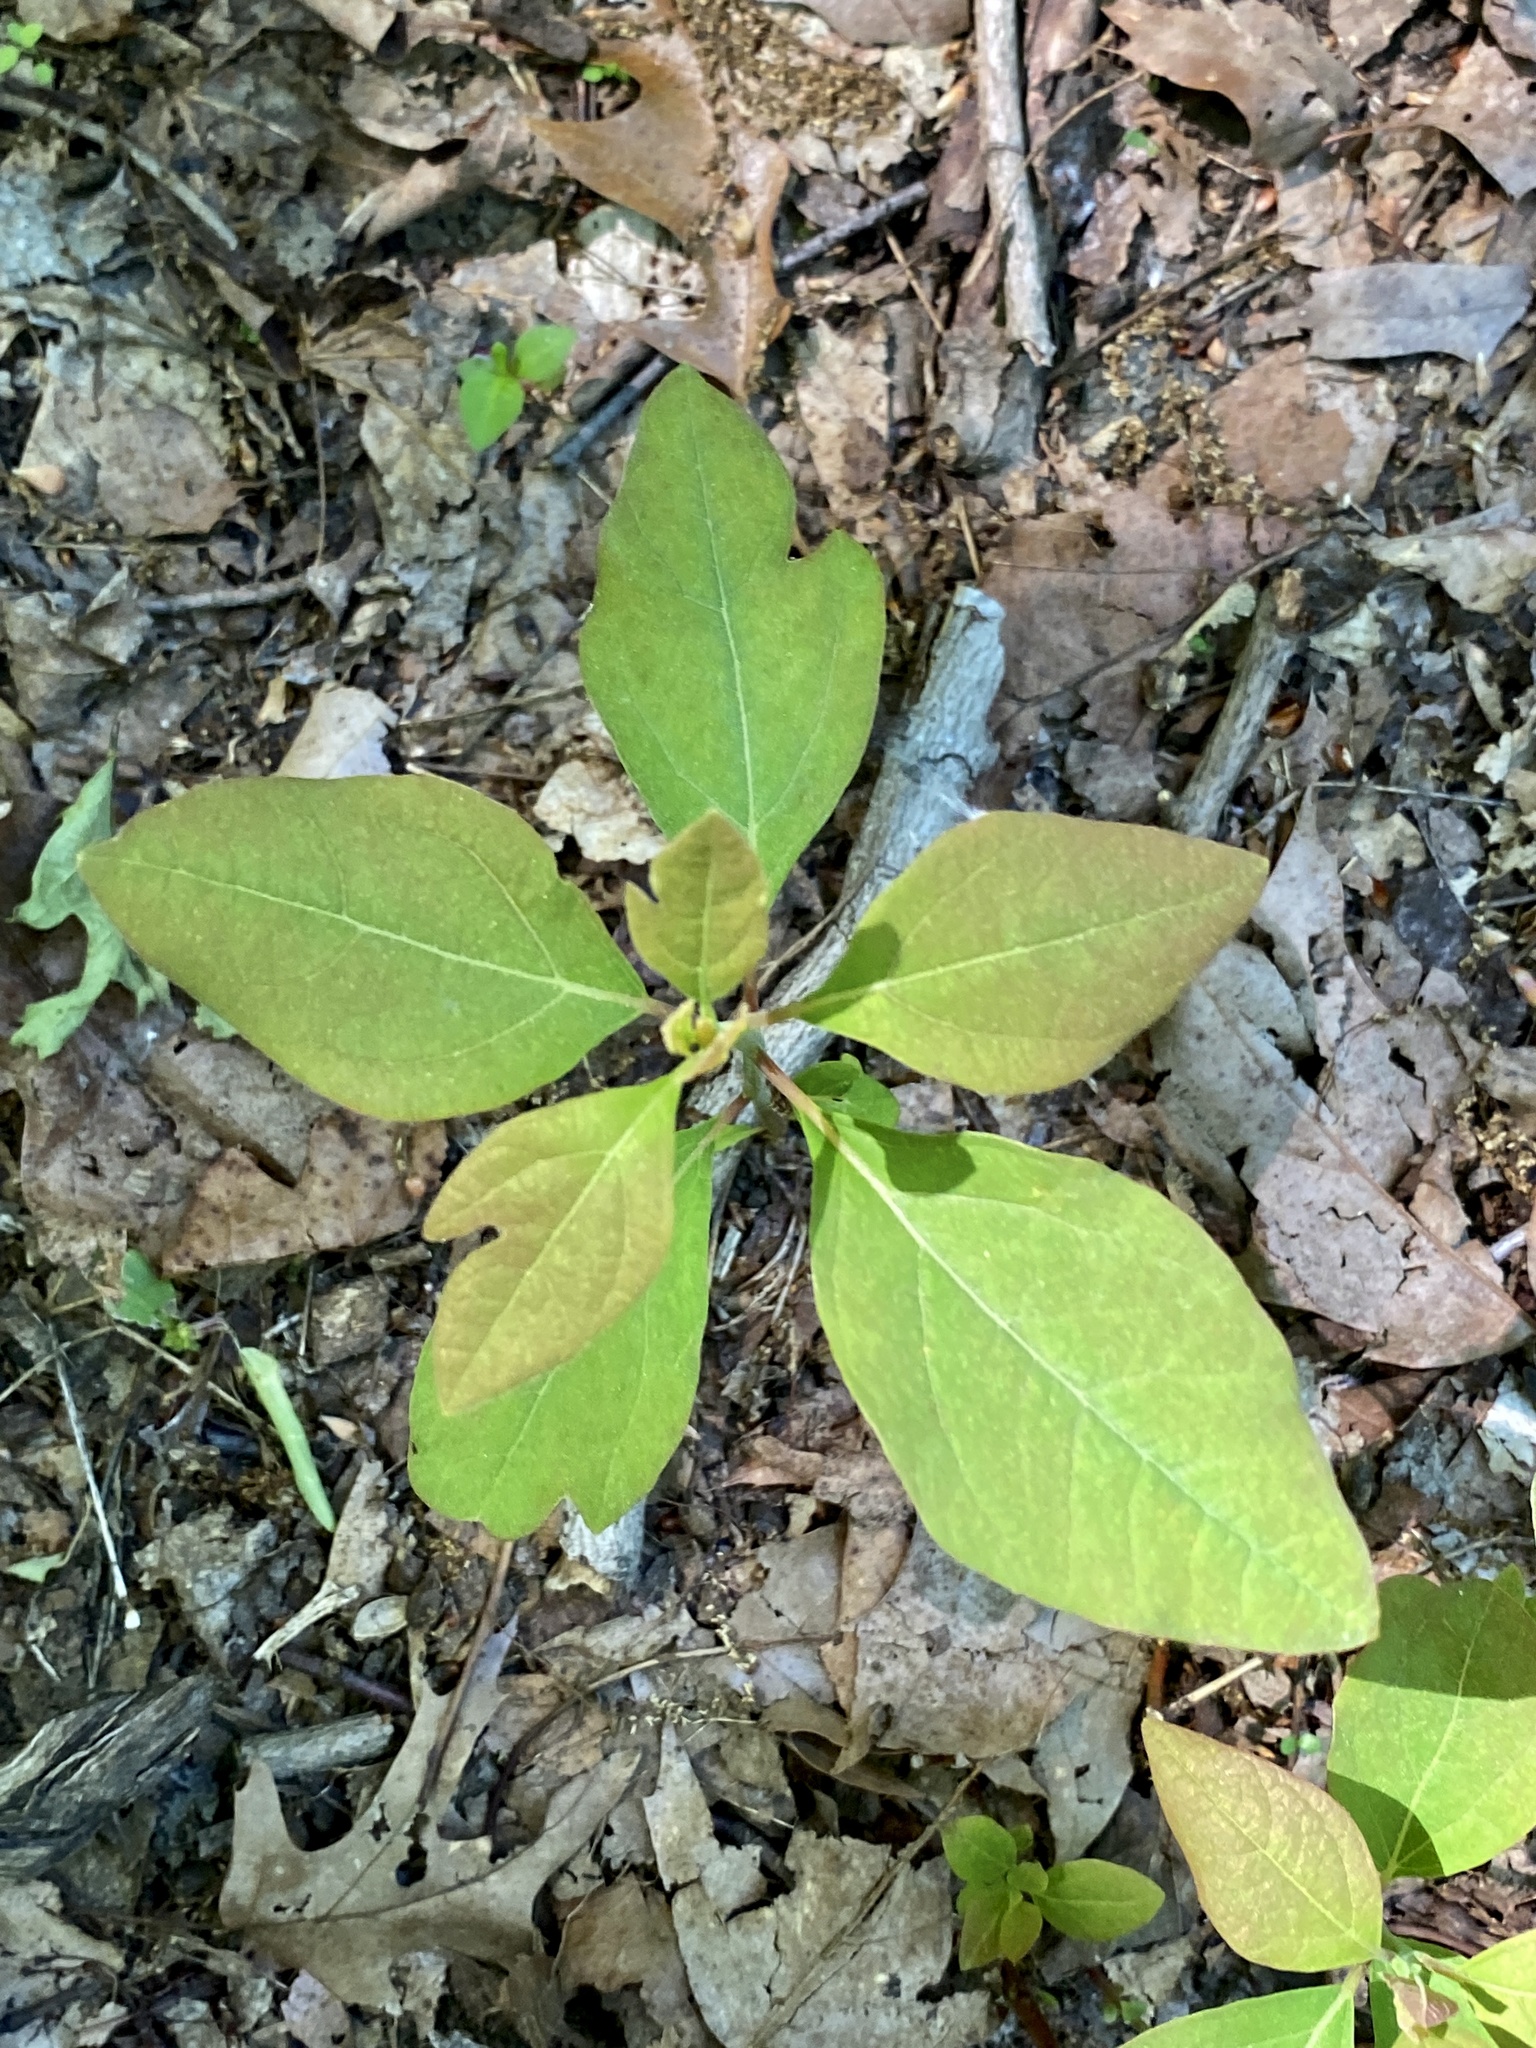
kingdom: Plantae
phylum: Tracheophyta
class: Magnoliopsida
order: Laurales
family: Lauraceae
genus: Sassafras
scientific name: Sassafras albidum
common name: Sassafras
